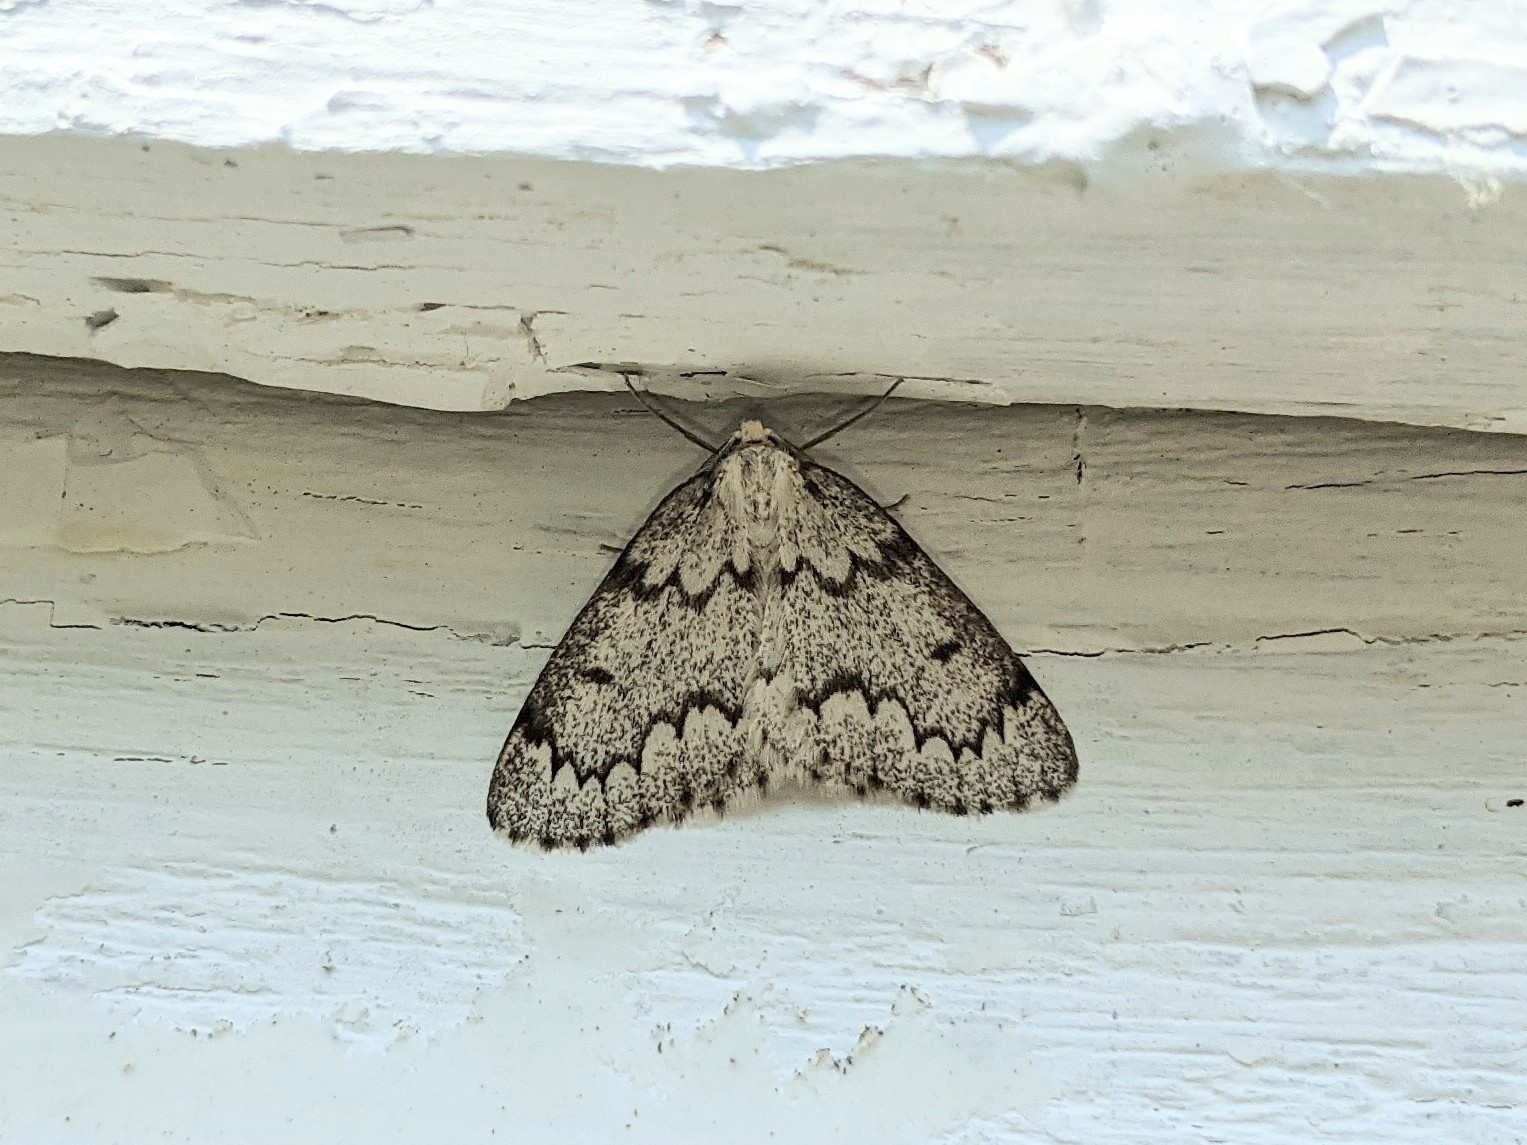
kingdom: Animalia
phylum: Arthropoda
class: Insecta
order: Lepidoptera
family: Geometridae
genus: Nepytia
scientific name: Nepytia canosaria
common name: False hemlock looper
